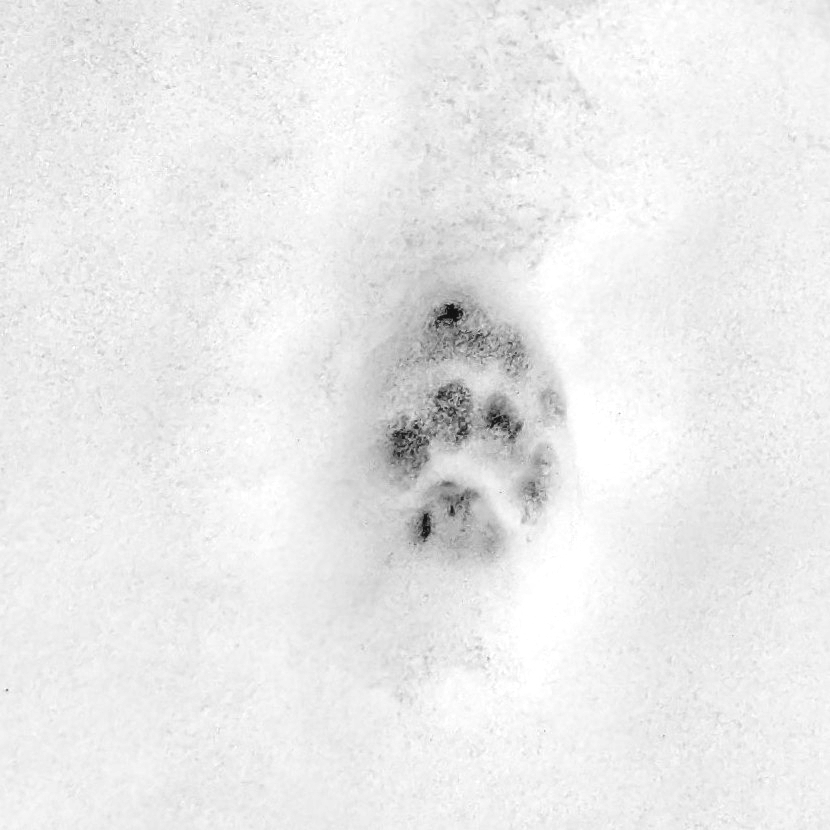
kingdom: Animalia
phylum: Chordata
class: Mammalia
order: Carnivora
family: Felidae
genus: Felis
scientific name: Felis catus
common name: Domestic cat
